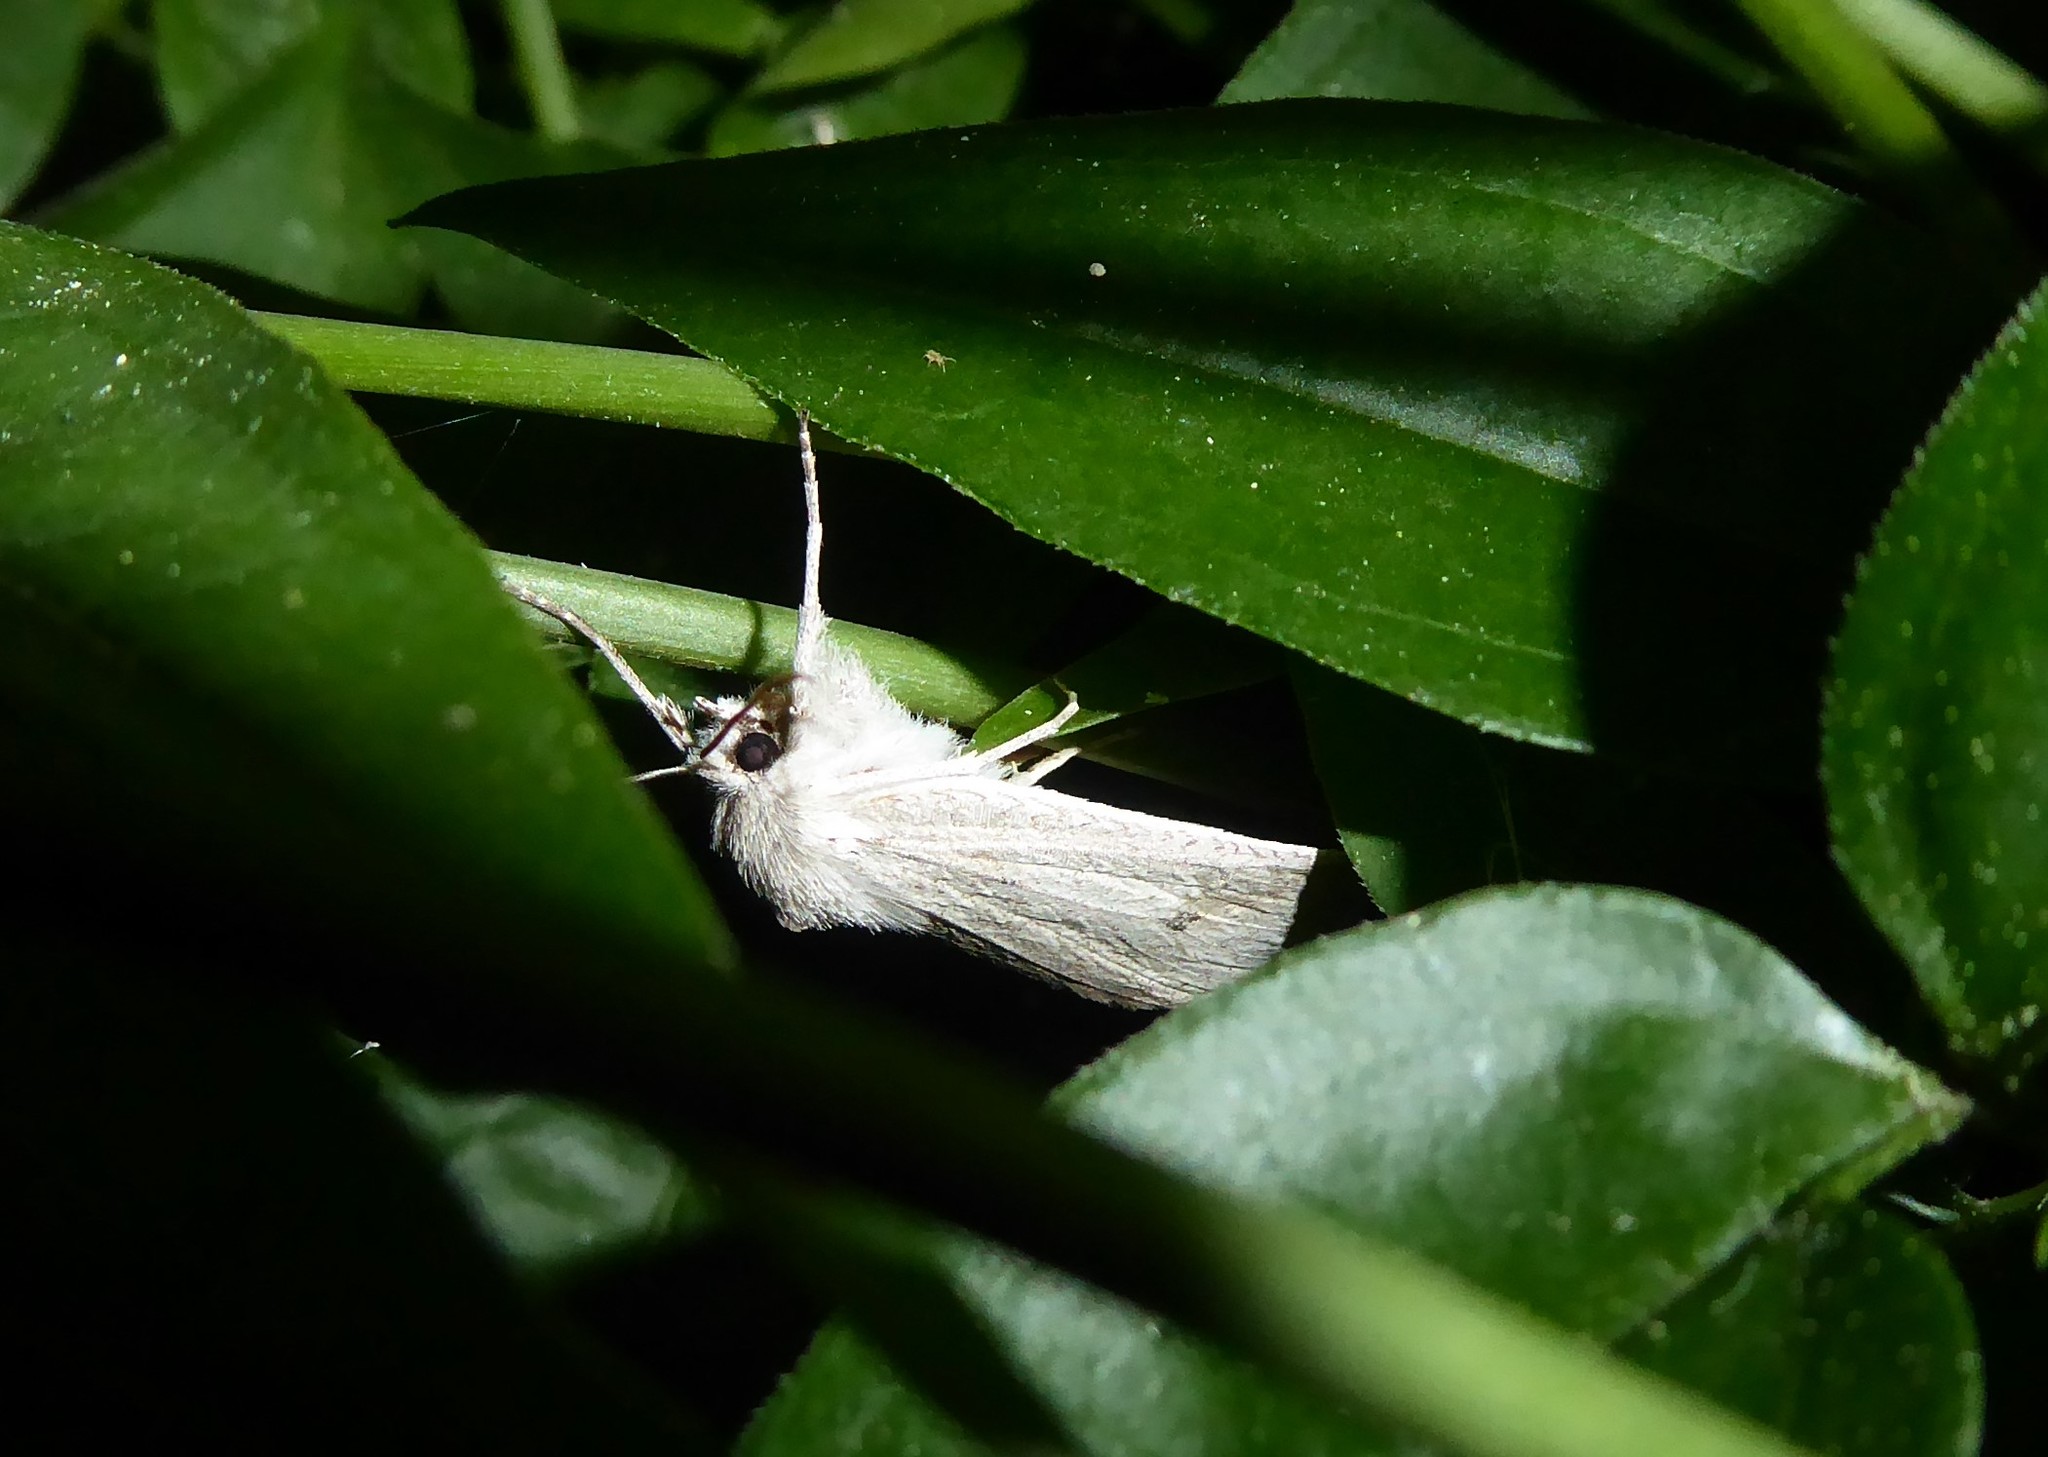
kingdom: Animalia
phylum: Arthropoda
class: Insecta
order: Lepidoptera
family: Geometridae
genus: Declana
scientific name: Declana leptomera
